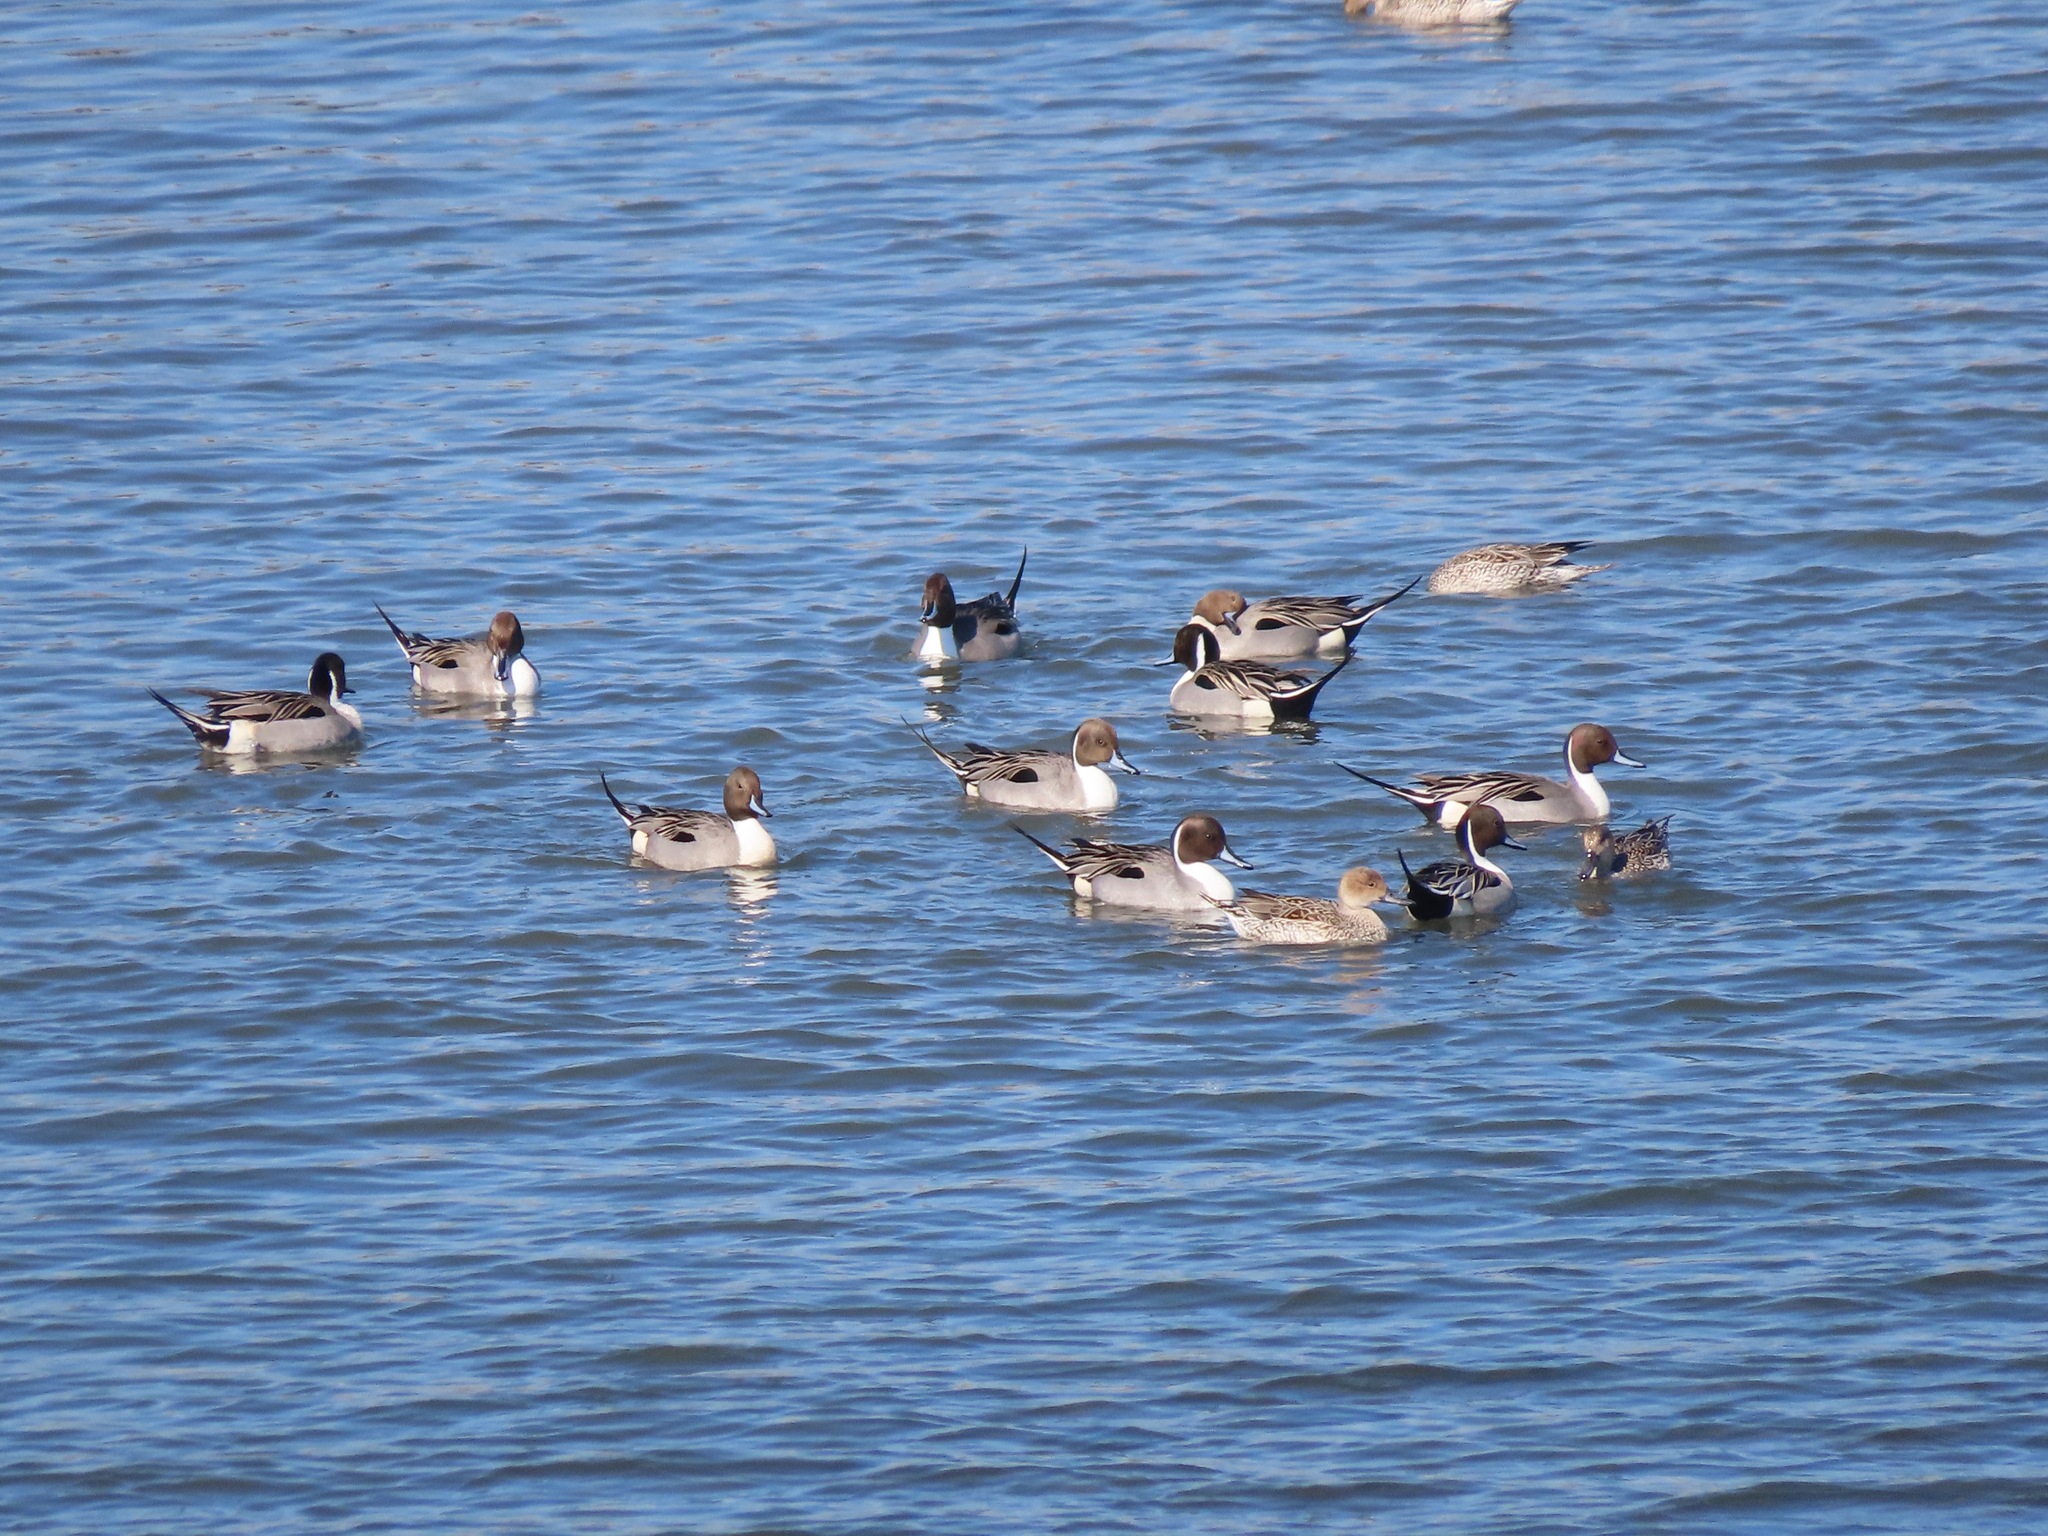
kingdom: Animalia
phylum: Chordata
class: Aves
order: Anseriformes
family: Anatidae
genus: Anas
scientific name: Anas acuta
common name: Northern pintail
